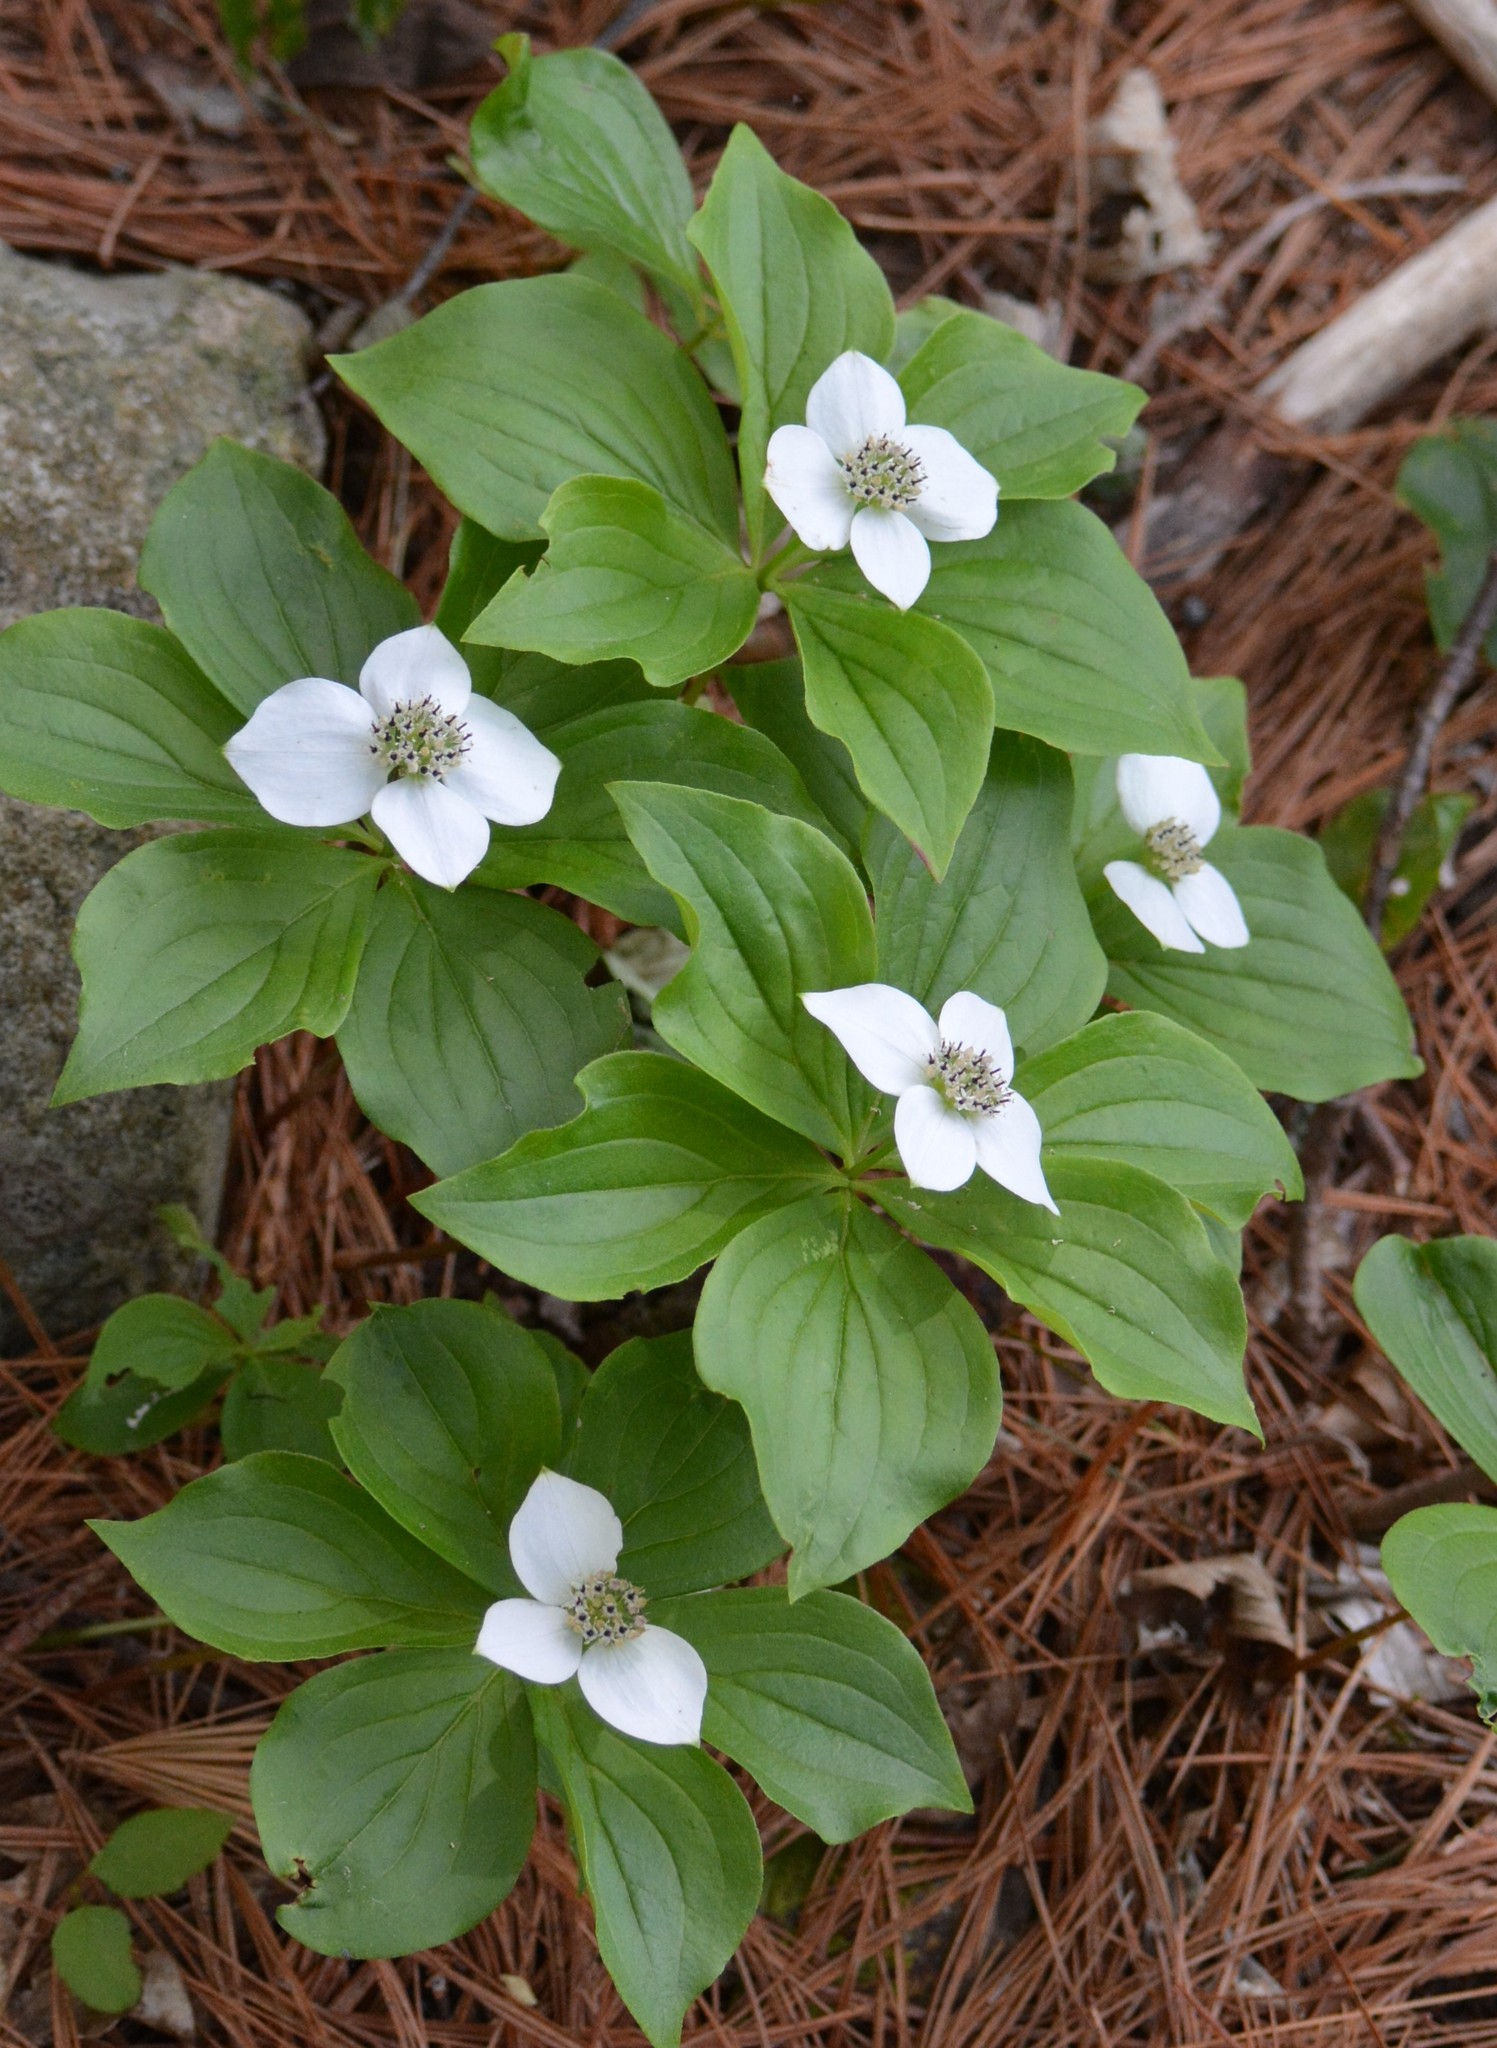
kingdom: Plantae
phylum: Tracheophyta
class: Magnoliopsida
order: Cornales
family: Cornaceae
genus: Cornus
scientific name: Cornus canadensis
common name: Creeping dogwood
